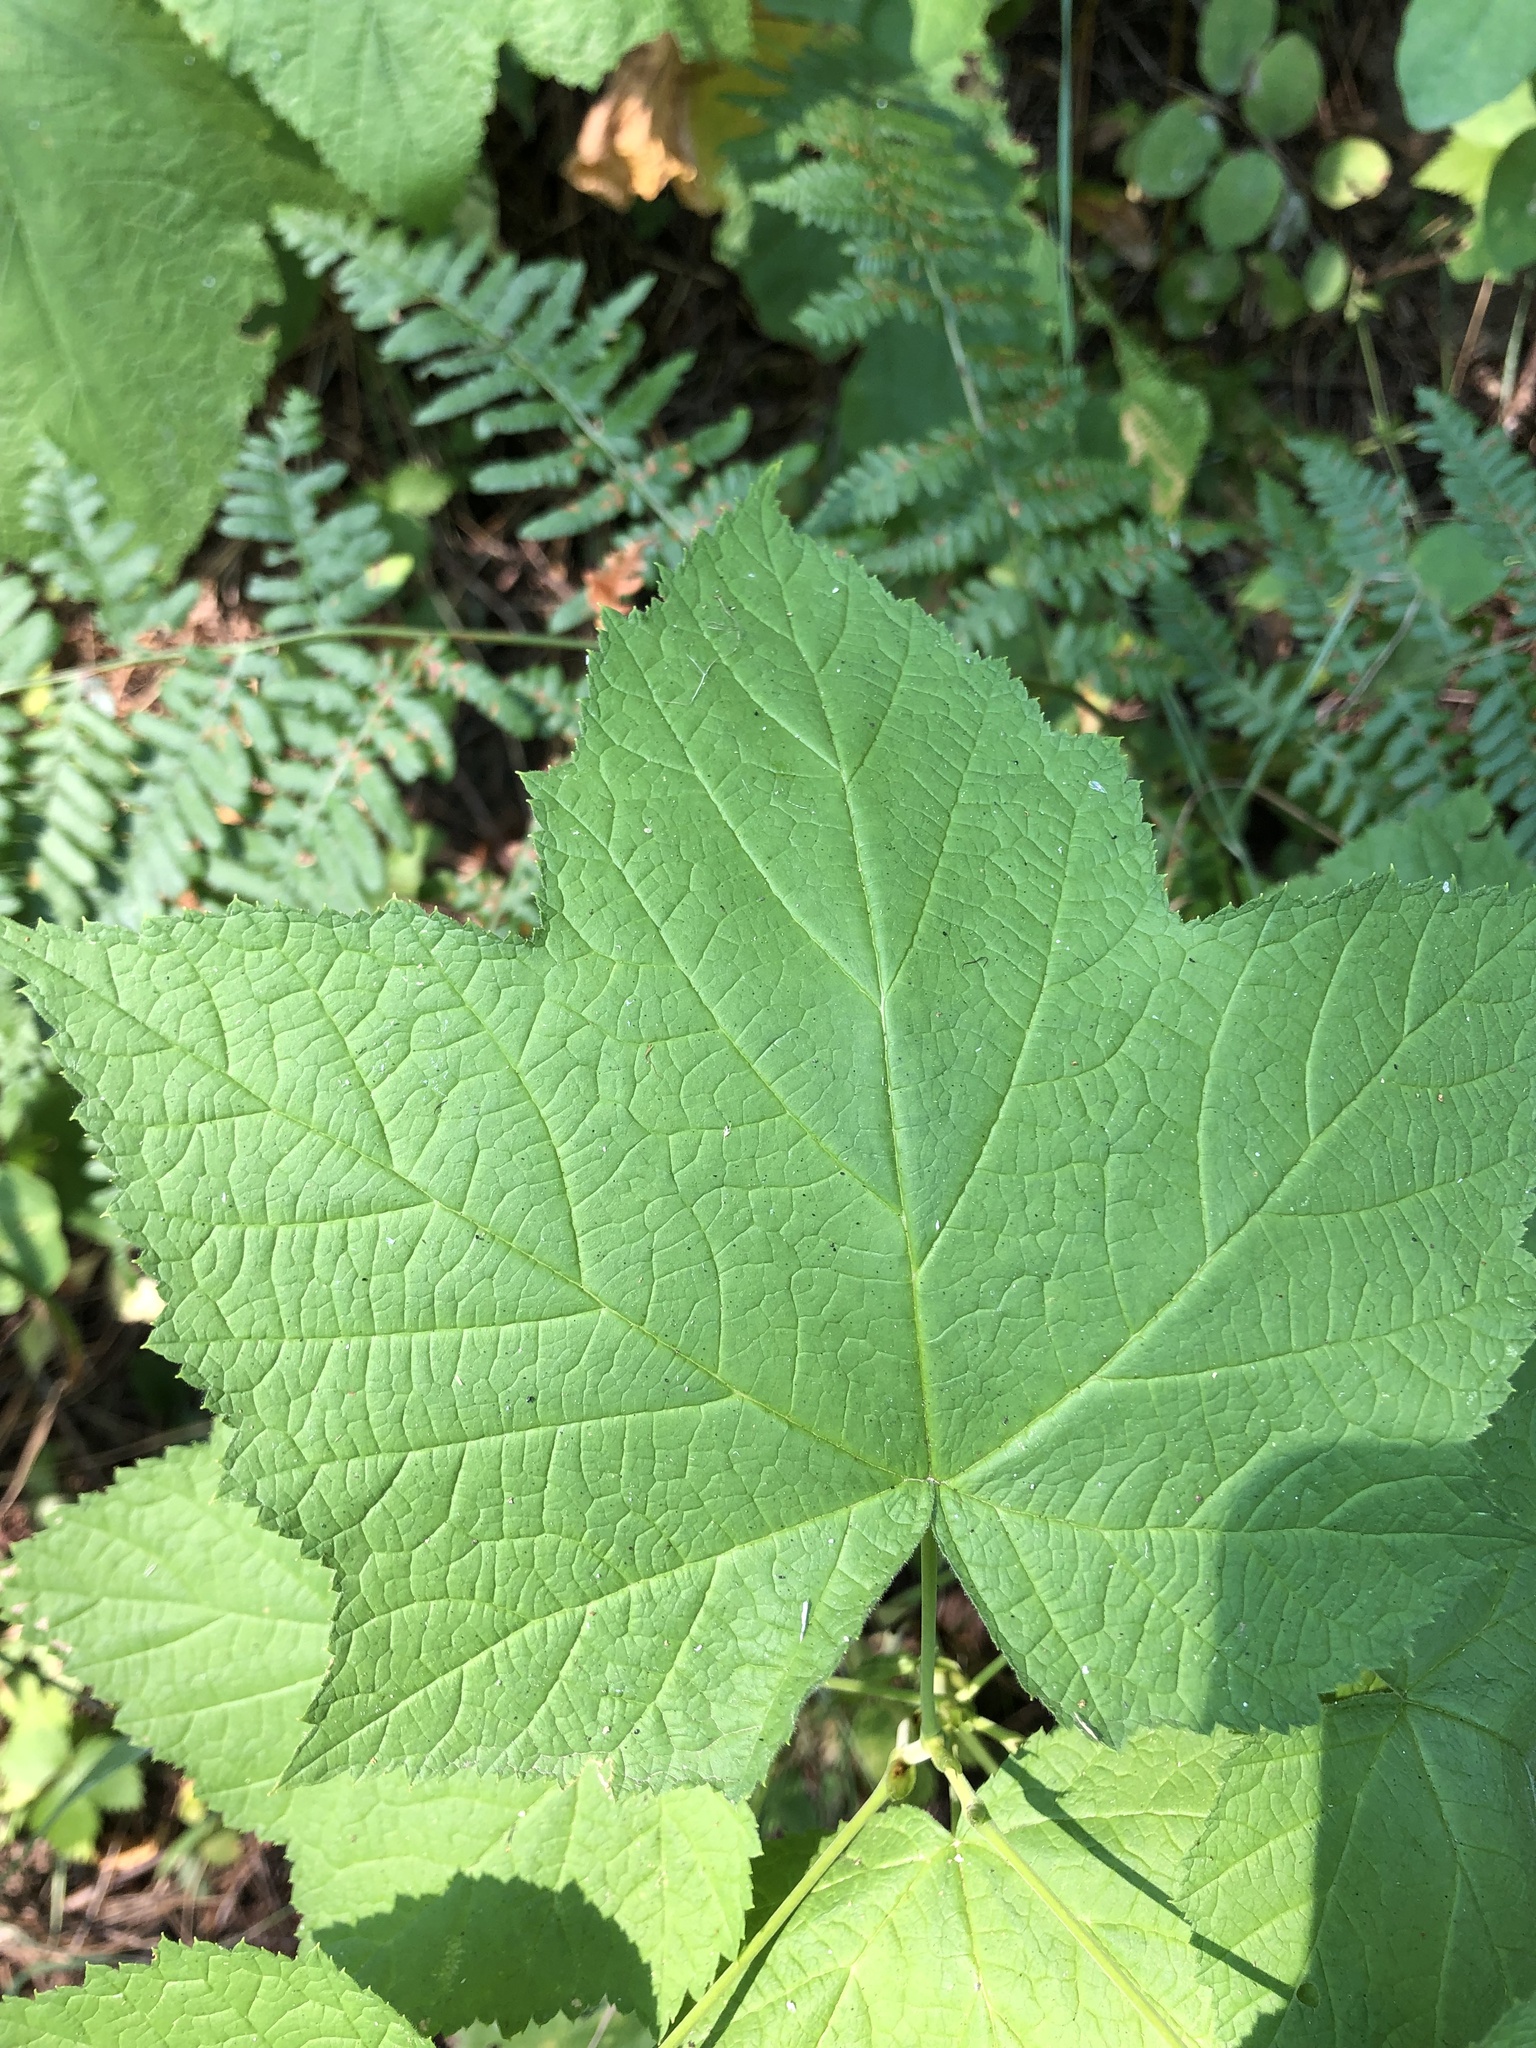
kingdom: Plantae
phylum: Tracheophyta
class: Magnoliopsida
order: Rosales
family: Rosaceae
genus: Rubus
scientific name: Rubus parviflorus
